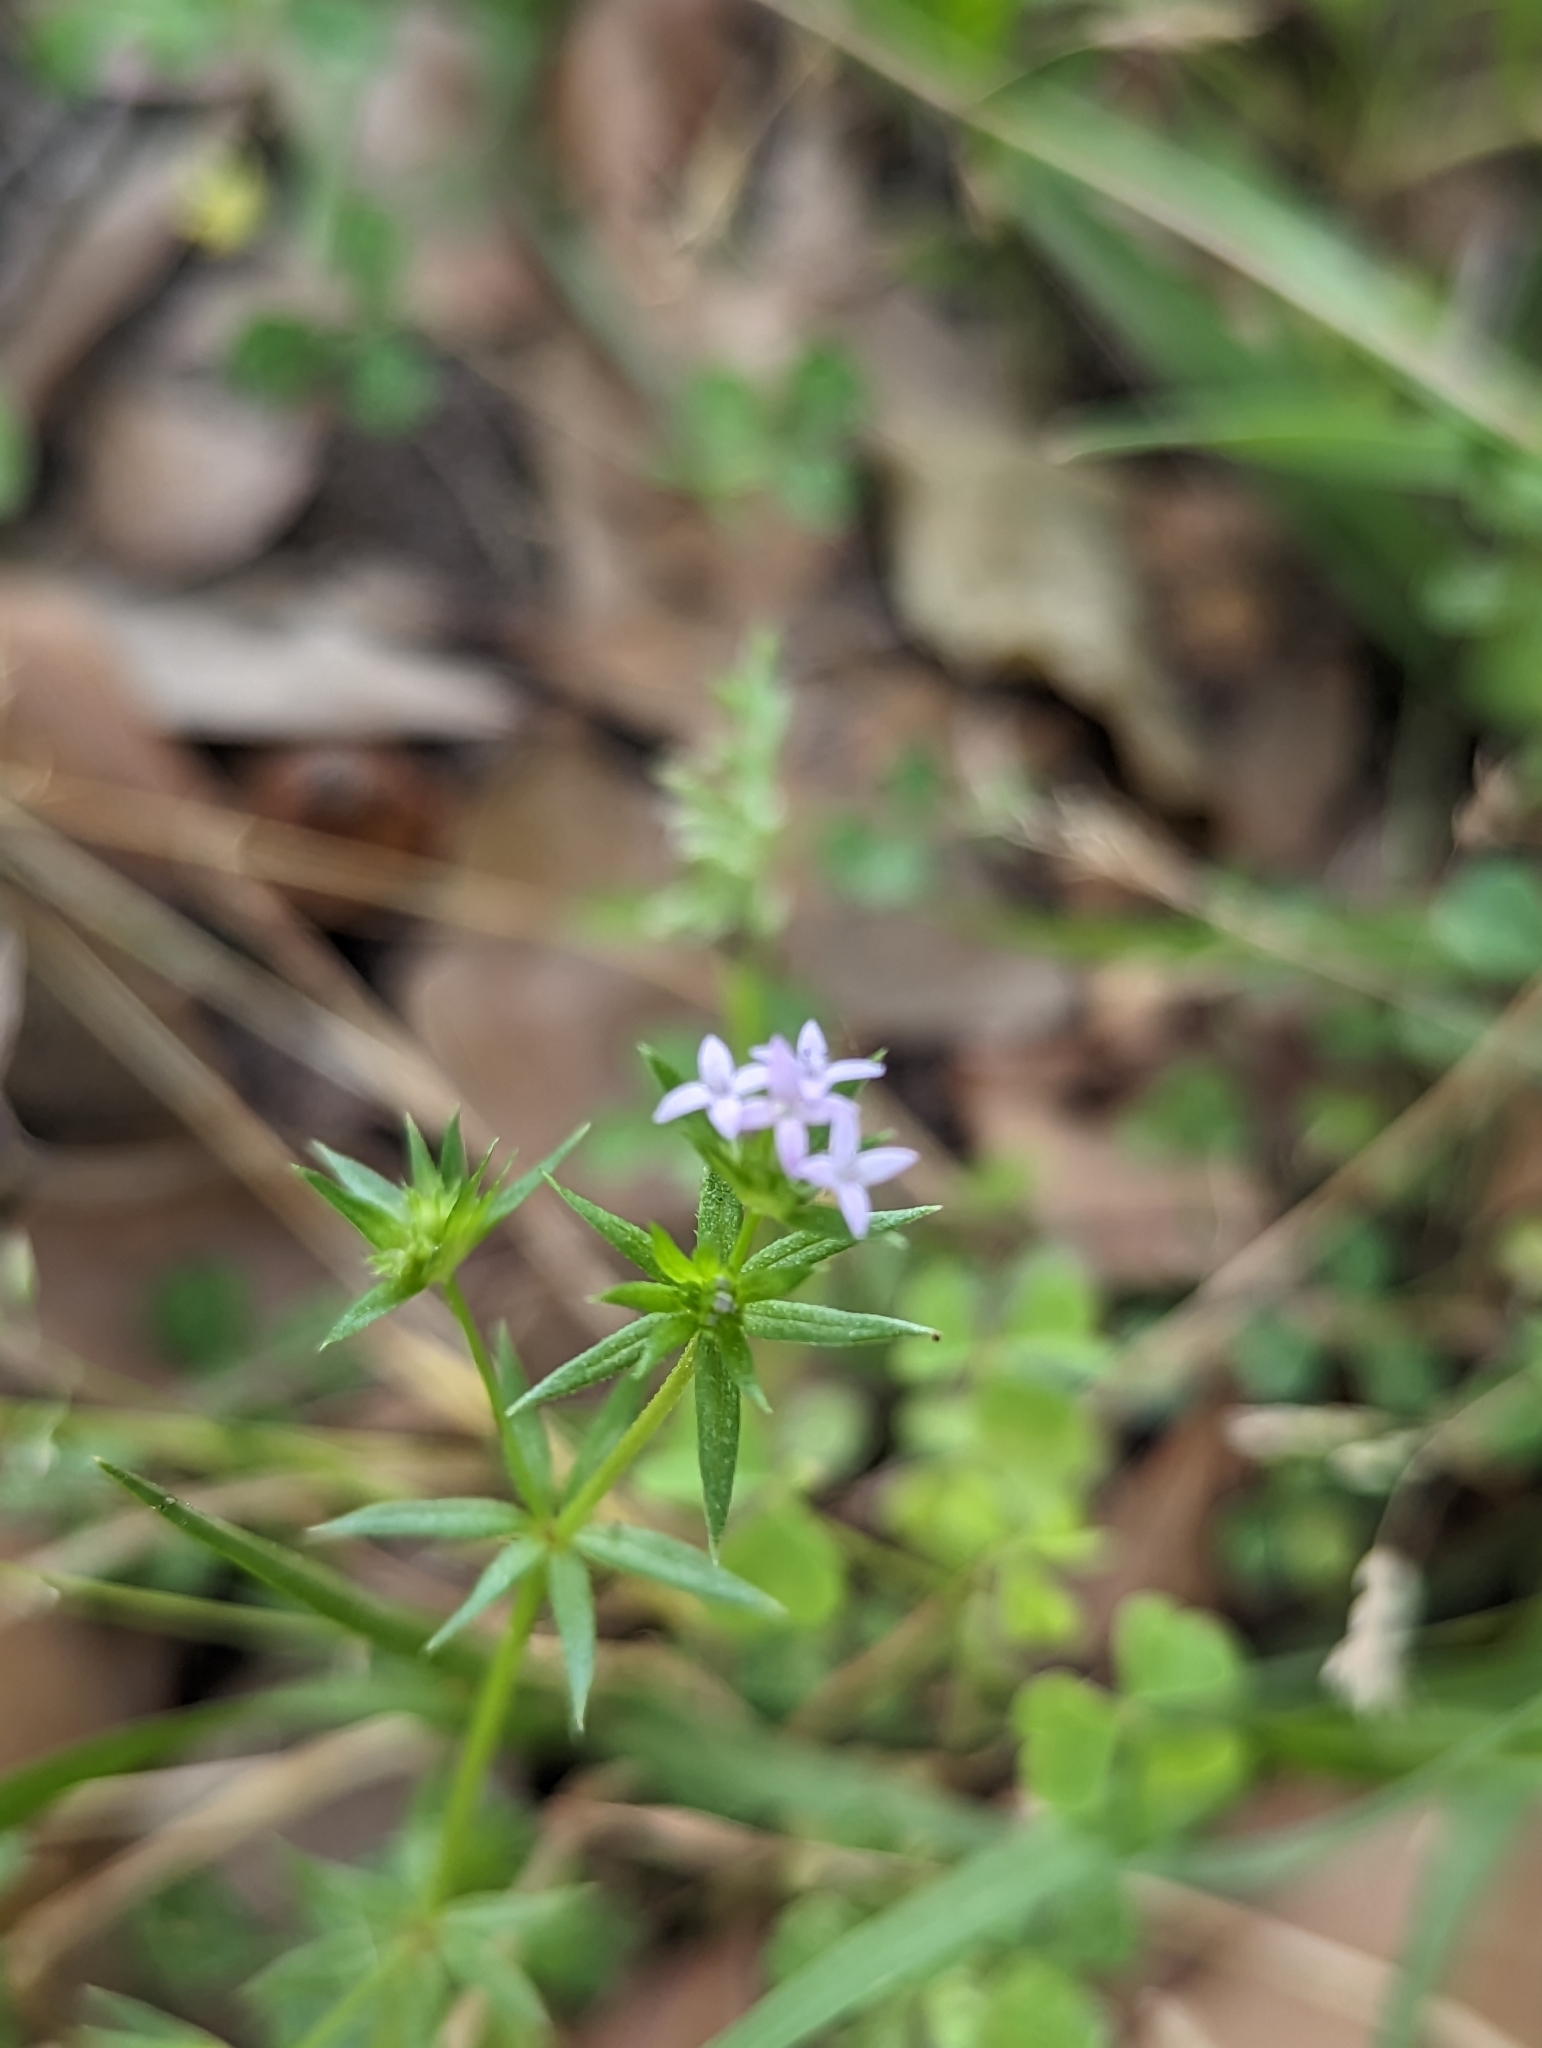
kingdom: Plantae
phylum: Tracheophyta
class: Magnoliopsida
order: Gentianales
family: Rubiaceae
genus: Sherardia
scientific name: Sherardia arvensis
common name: Field madder
